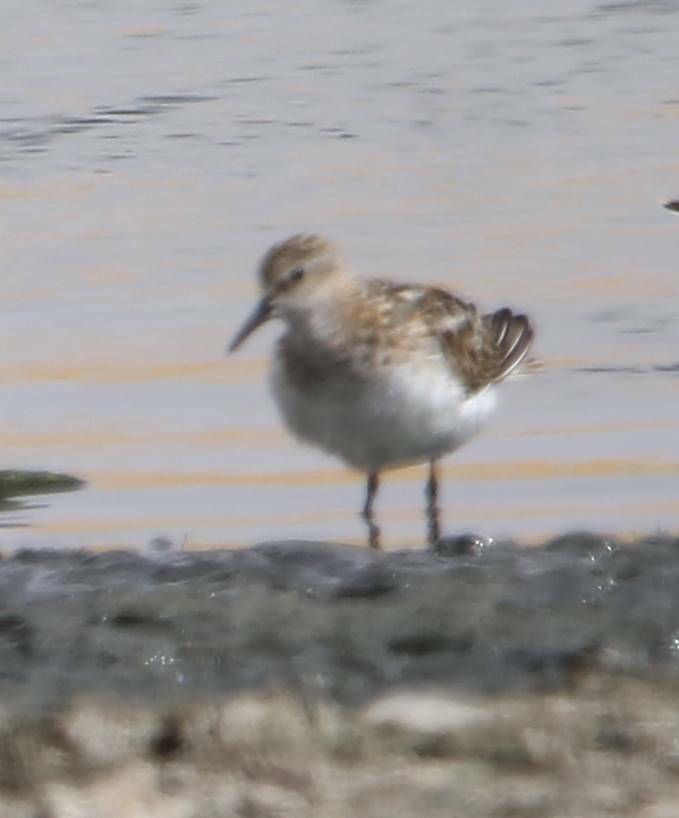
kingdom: Animalia
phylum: Chordata
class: Aves
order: Charadriiformes
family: Scolopacidae
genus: Calidris
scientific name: Calidris minuta
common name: Little stint
